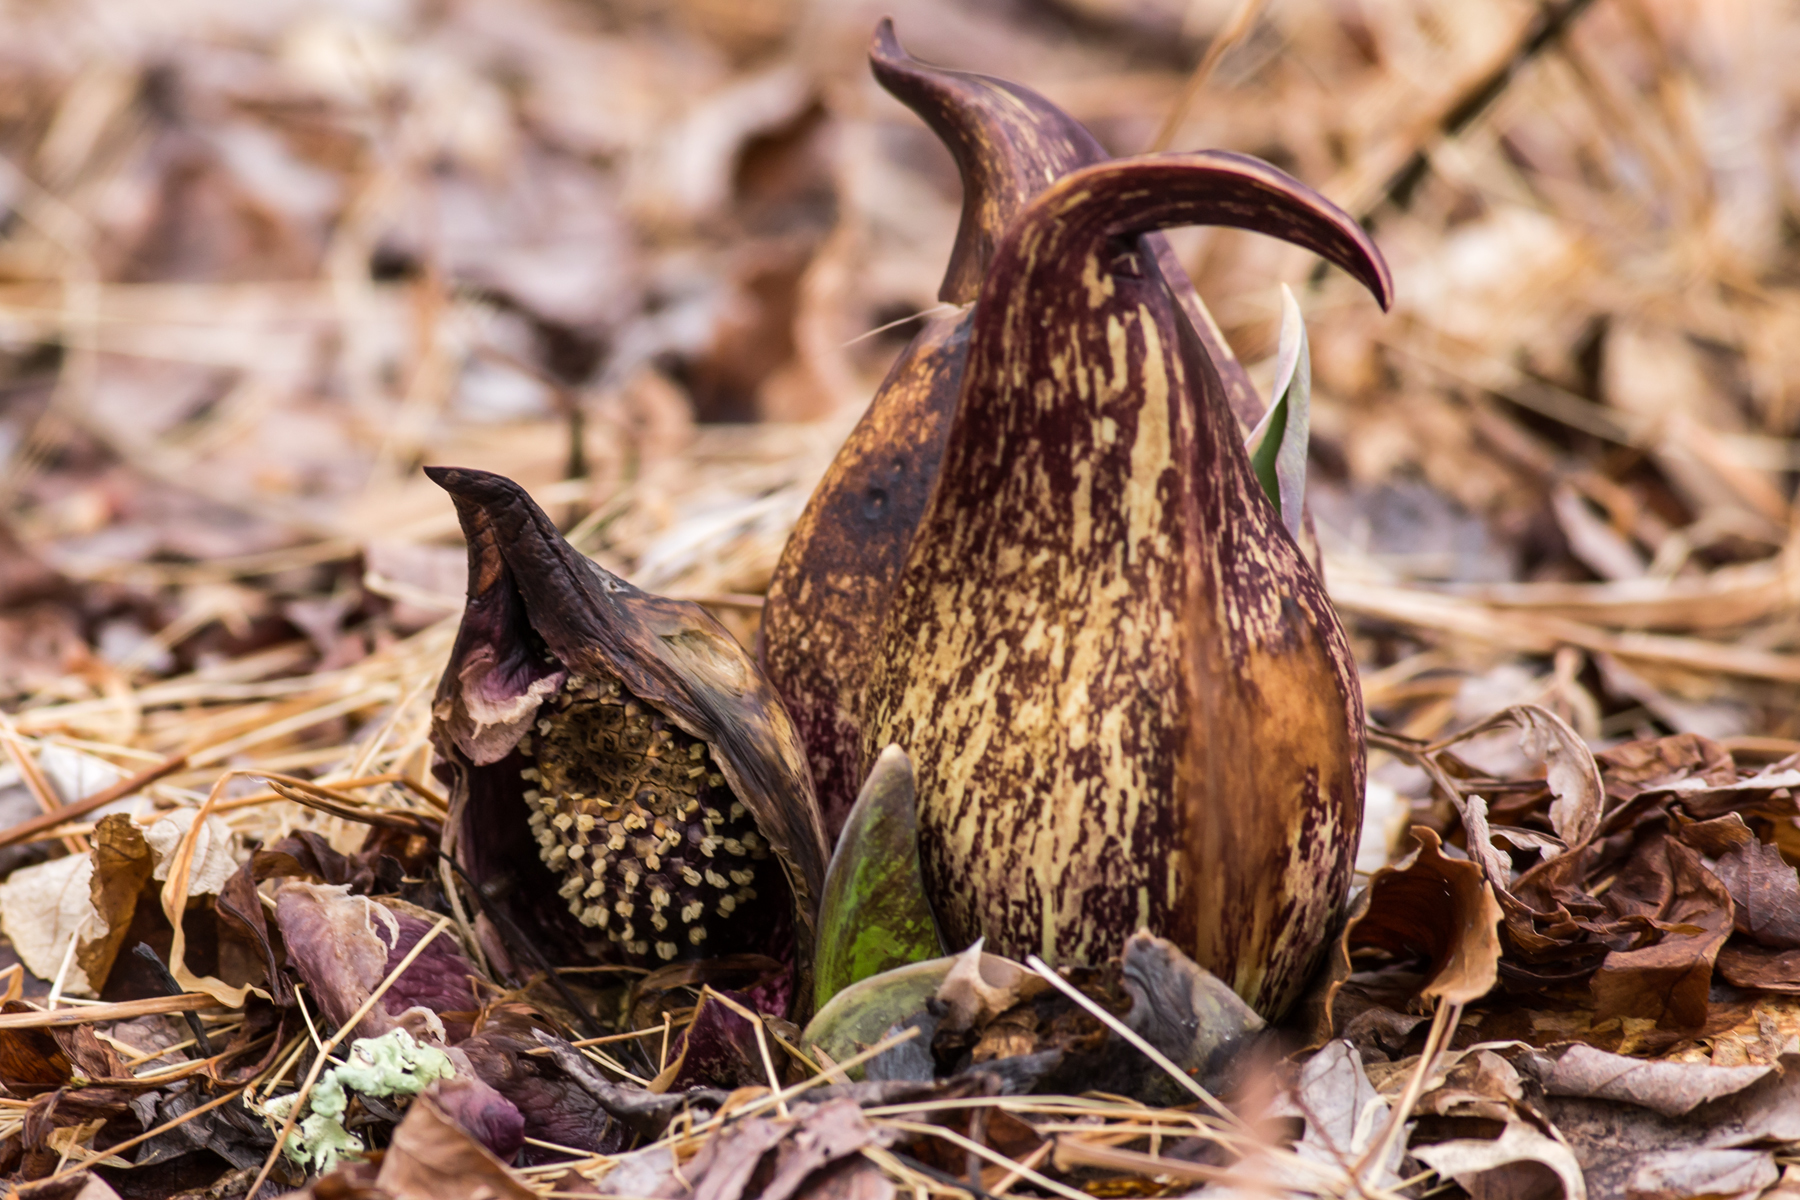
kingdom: Plantae
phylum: Tracheophyta
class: Liliopsida
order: Alismatales
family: Araceae
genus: Symplocarpus
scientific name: Symplocarpus foetidus
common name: Eastern skunk cabbage
